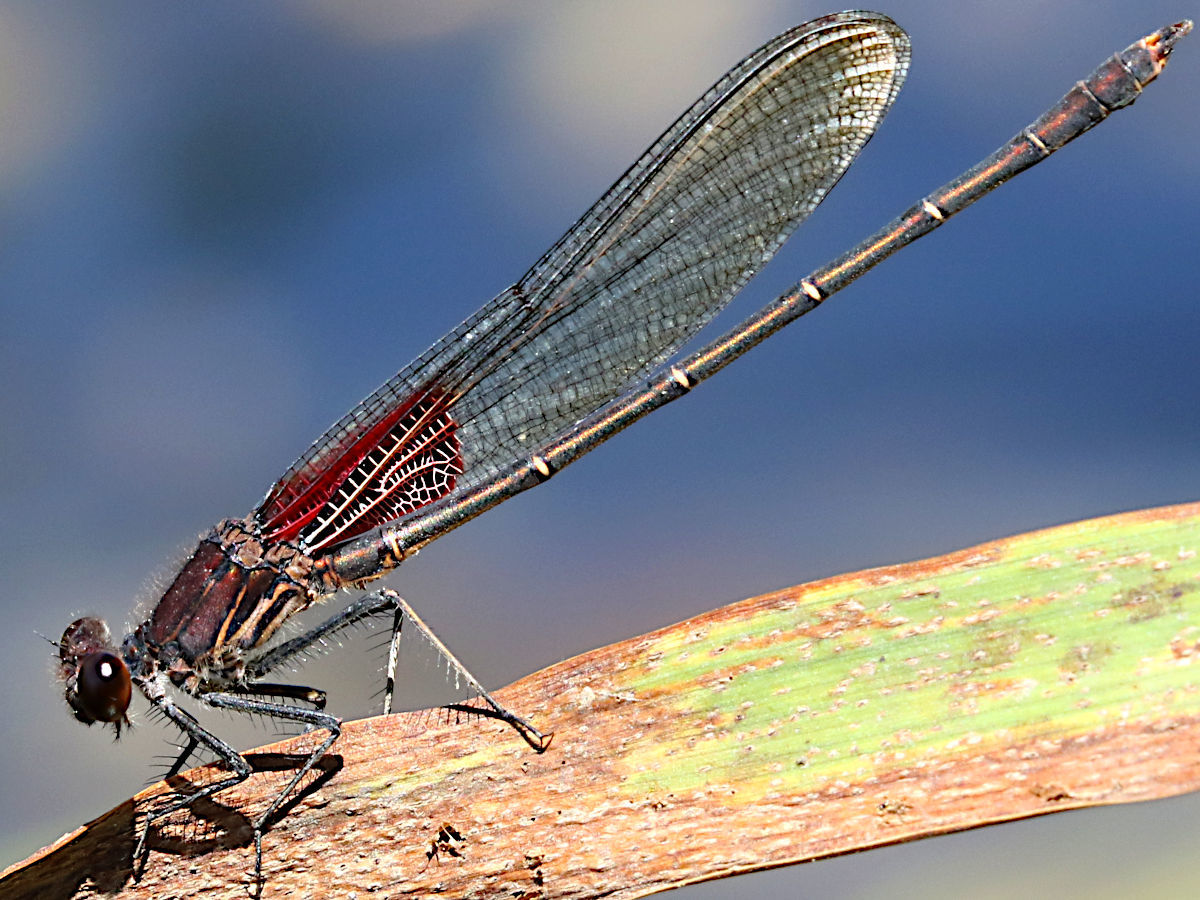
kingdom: Animalia
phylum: Arthropoda
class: Insecta
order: Odonata
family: Calopterygidae
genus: Hetaerina
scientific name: Hetaerina americana
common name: American rubyspot
